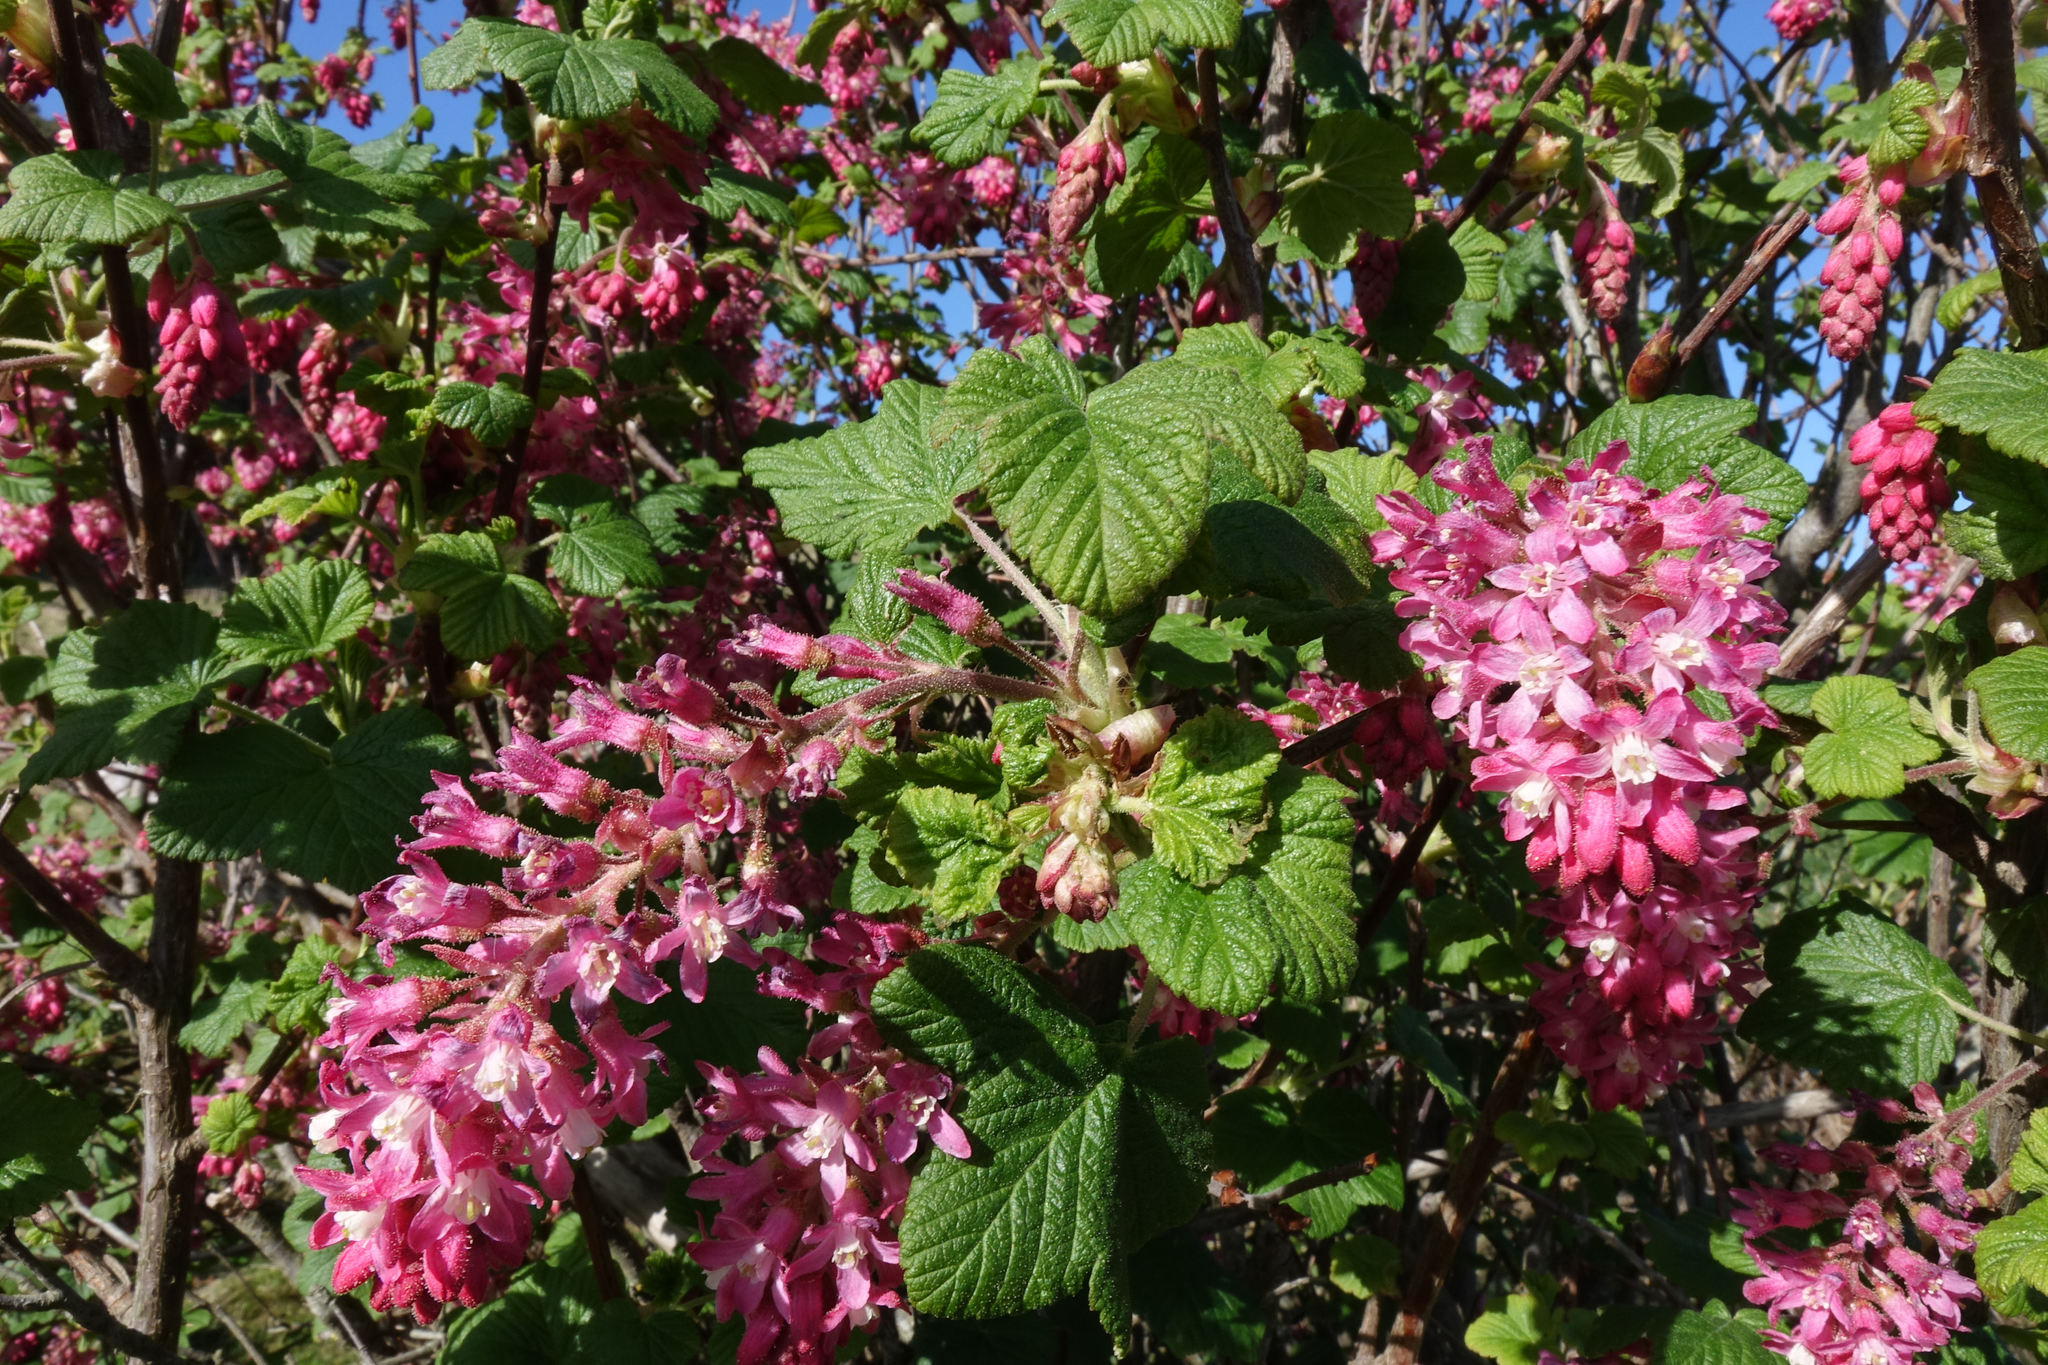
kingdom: Plantae
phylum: Tracheophyta
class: Magnoliopsida
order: Saxifragales
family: Grossulariaceae
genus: Ribes
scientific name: Ribes sanguineum
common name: Flowering currant
